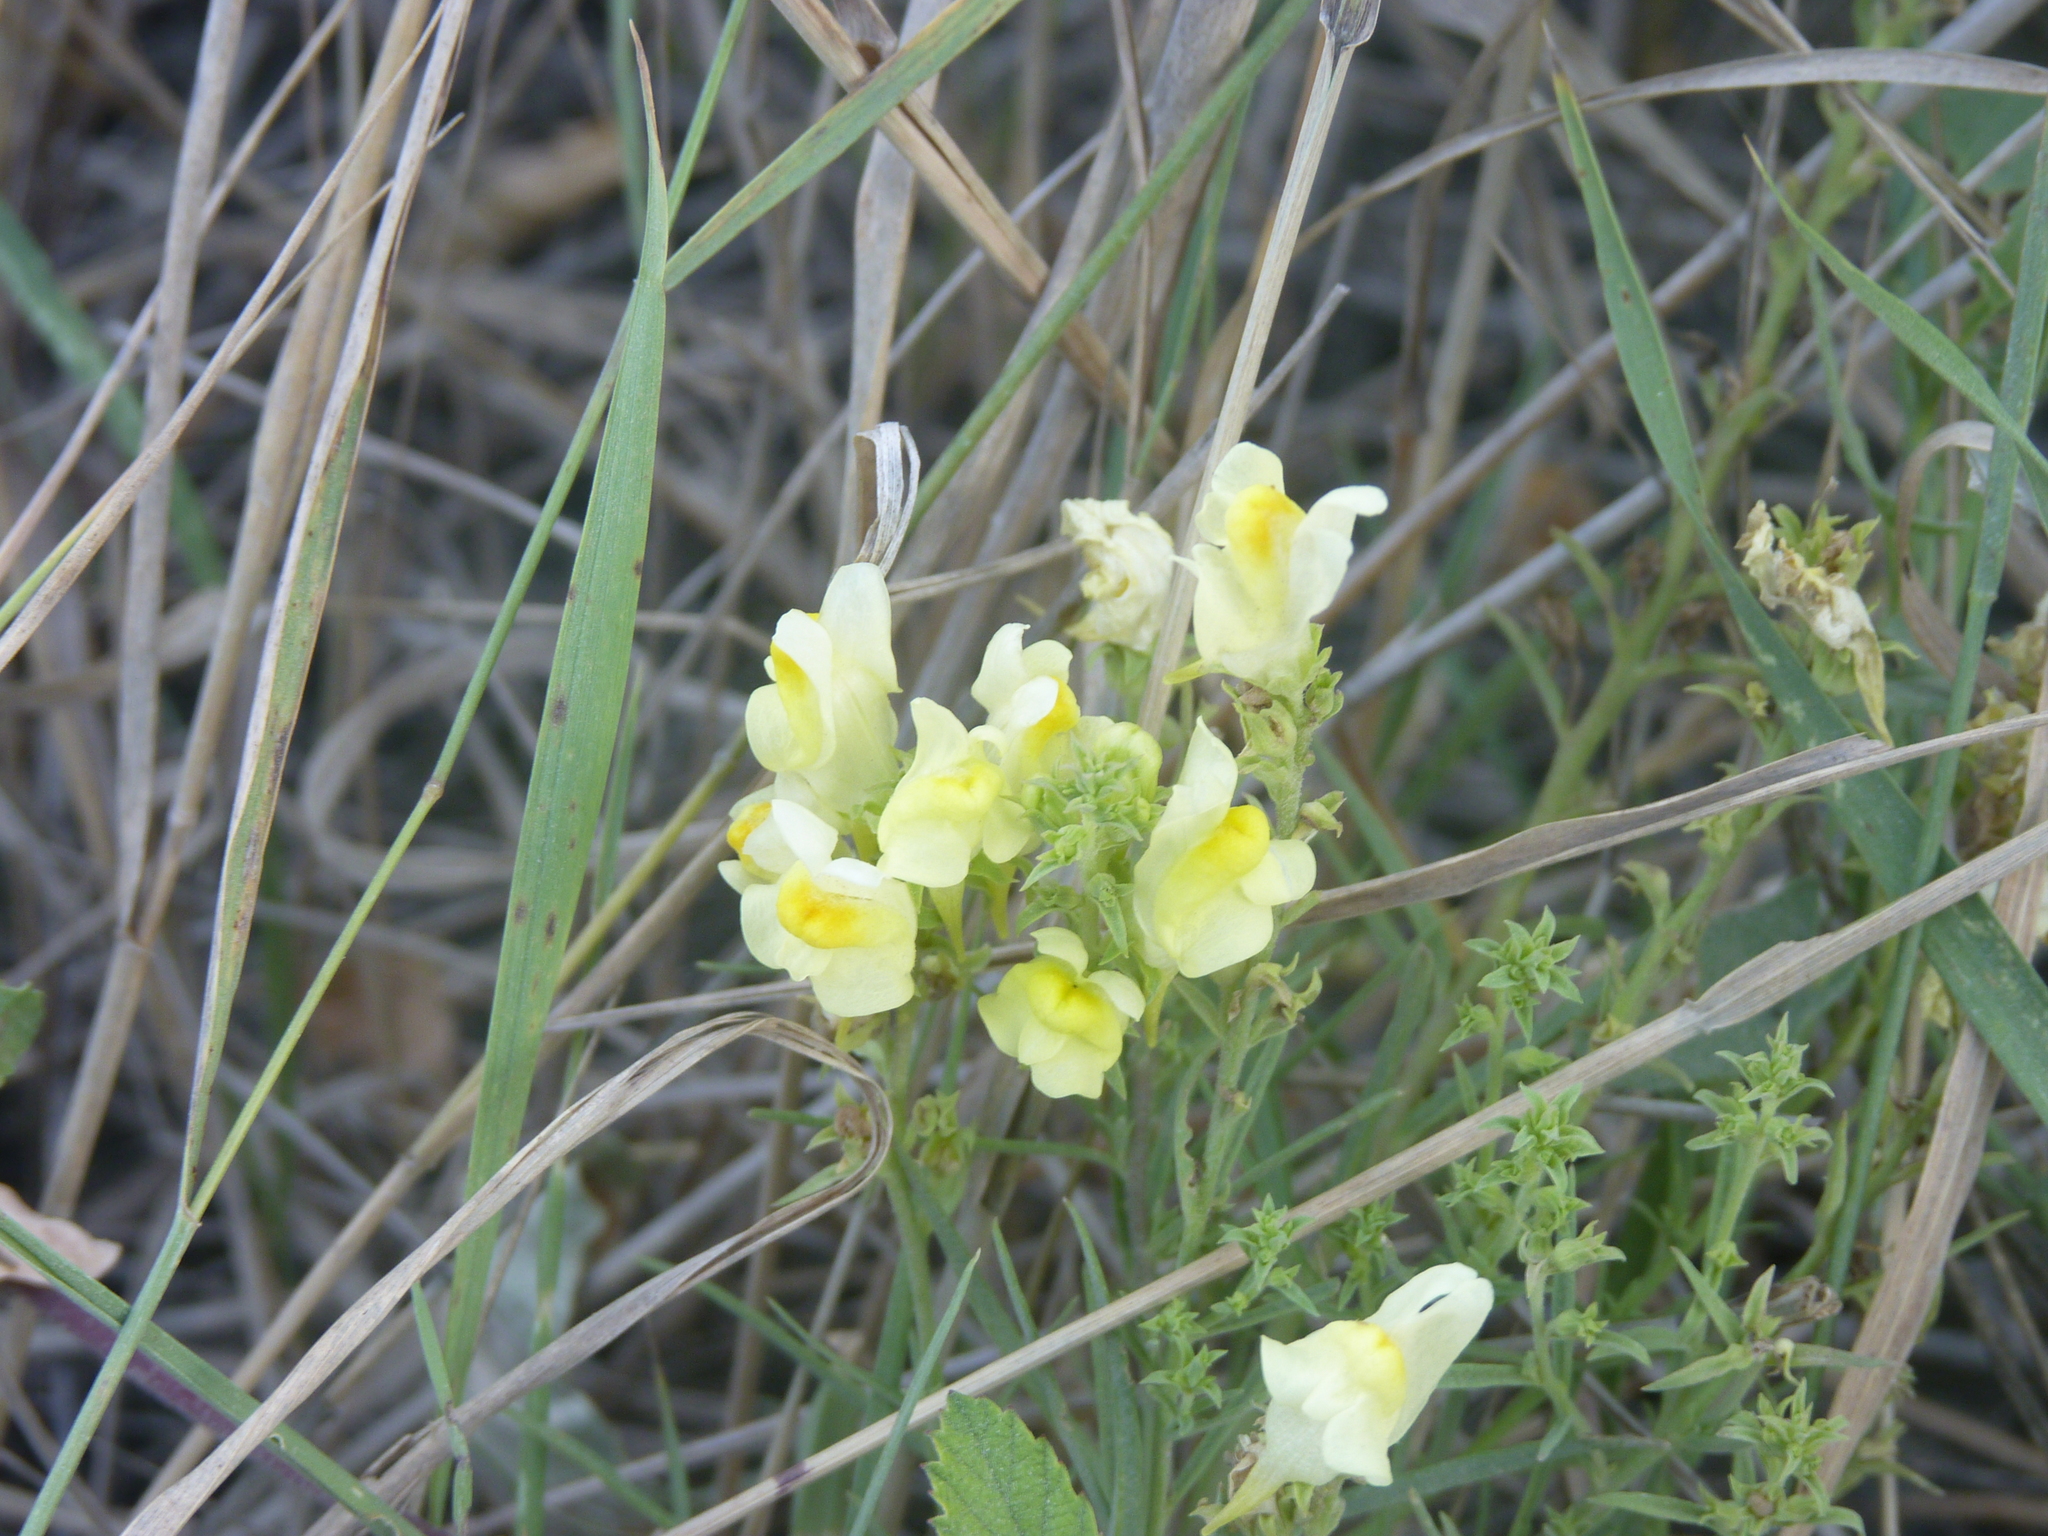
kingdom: Plantae
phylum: Tracheophyta
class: Magnoliopsida
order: Lamiales
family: Plantaginaceae
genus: Linaria
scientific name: Linaria vulgaris
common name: Butter and eggs
